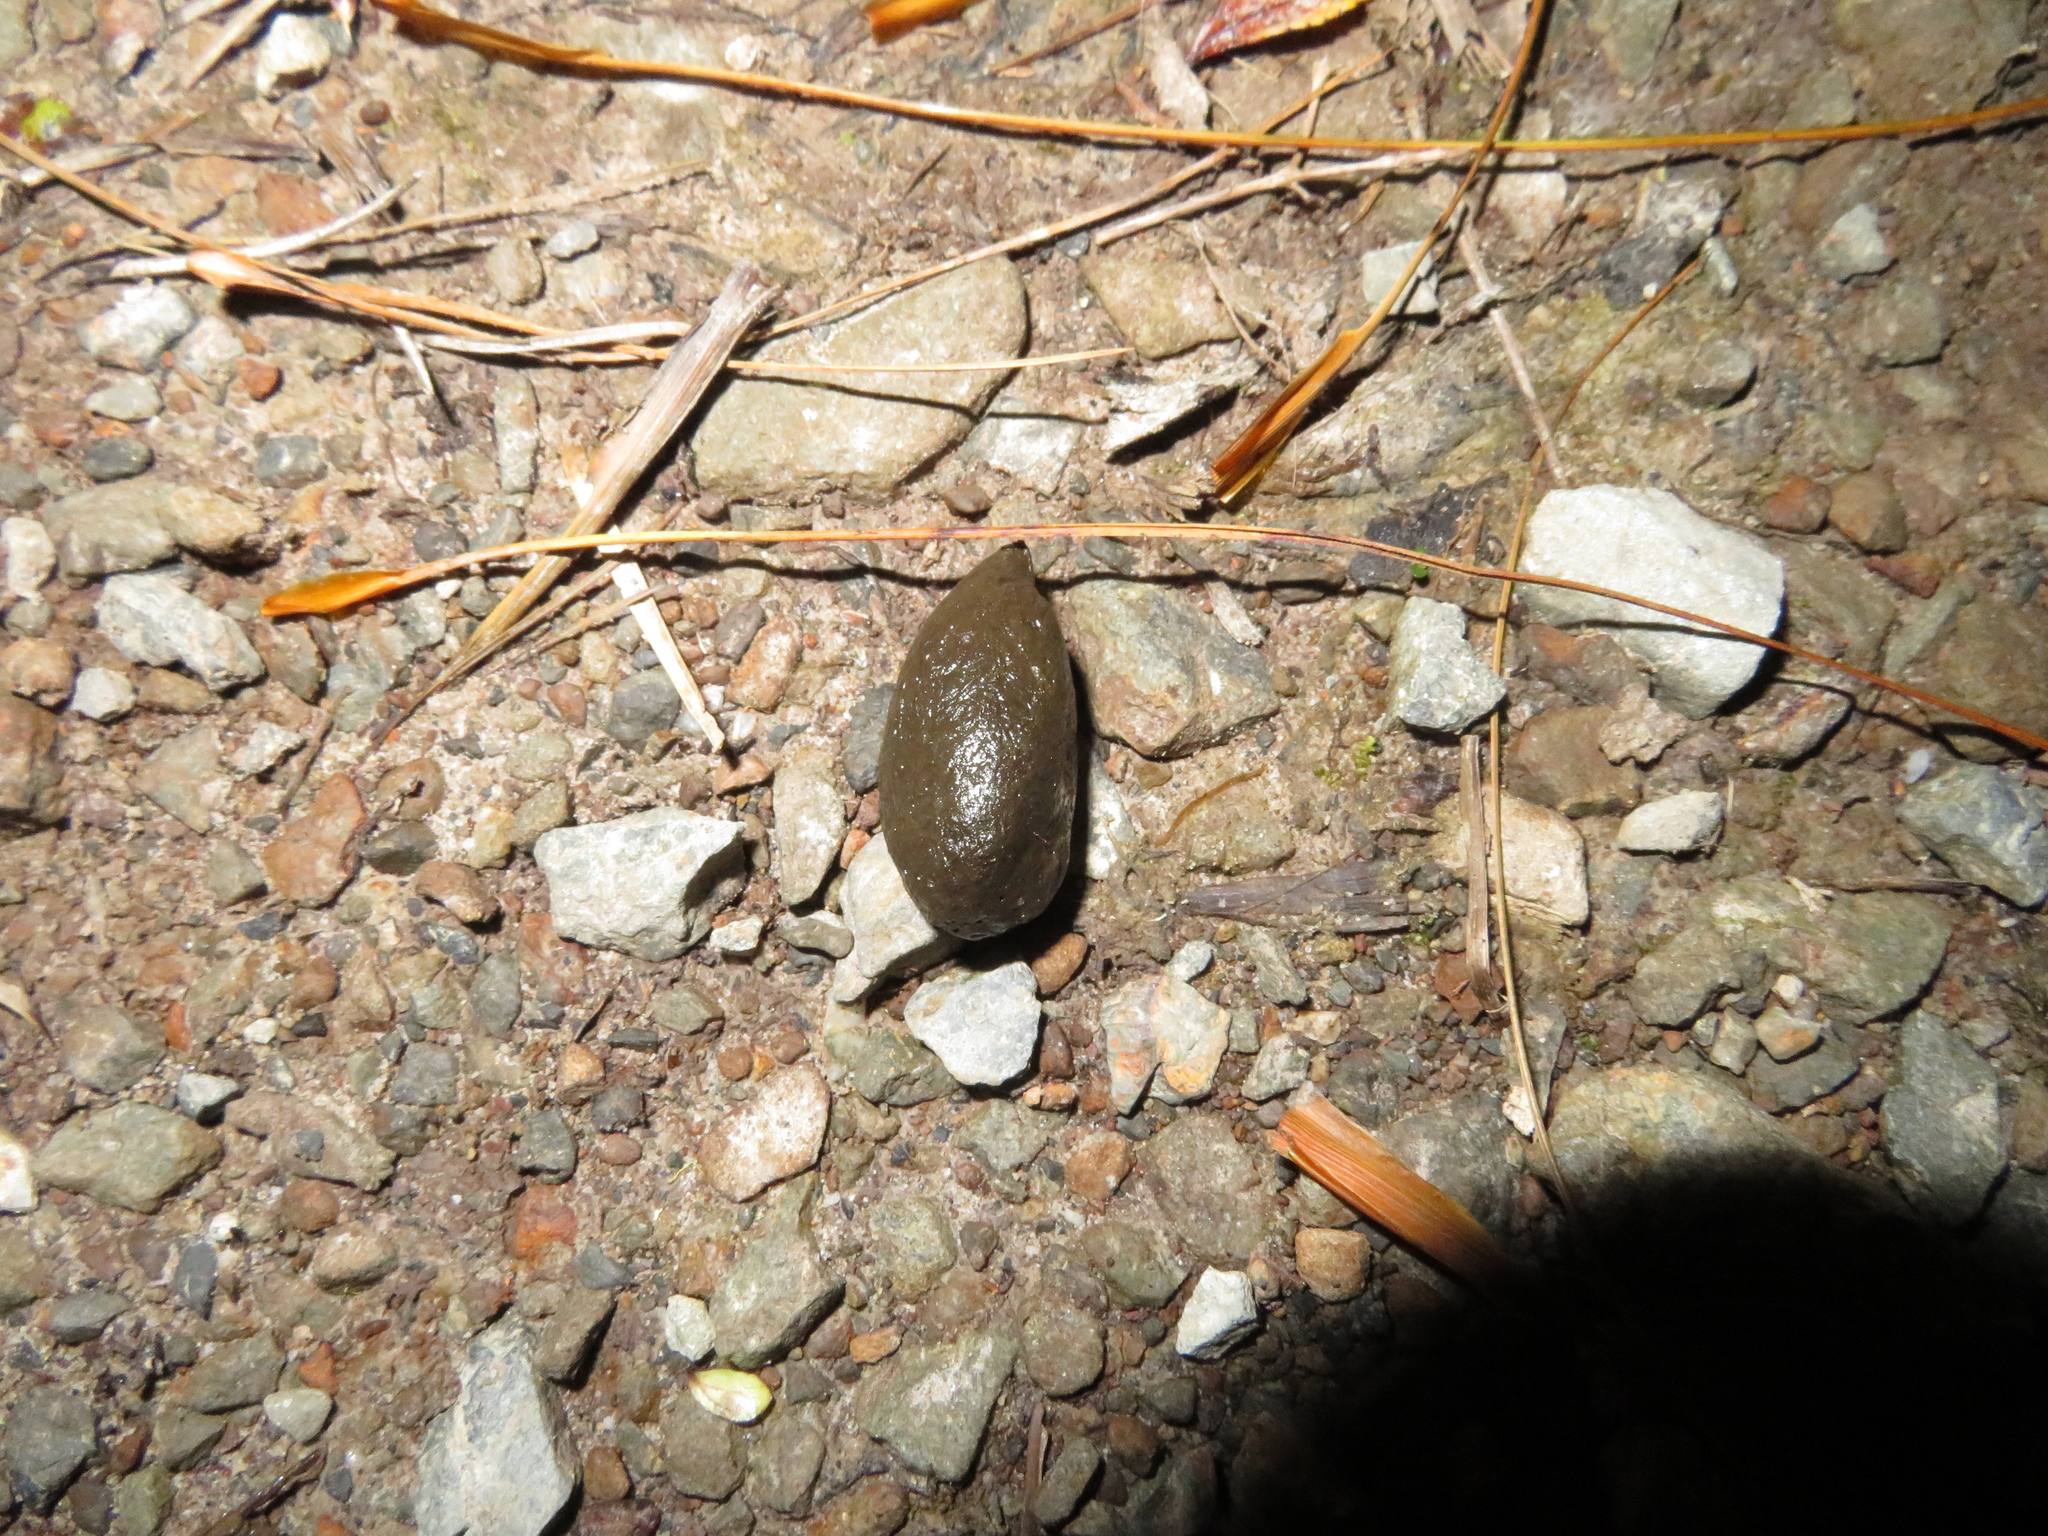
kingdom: Animalia
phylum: Chordata
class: Mammalia
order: Diprotodontia
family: Phalangeridae
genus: Trichosurus
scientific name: Trichosurus vulpecula
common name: Common brushtail
